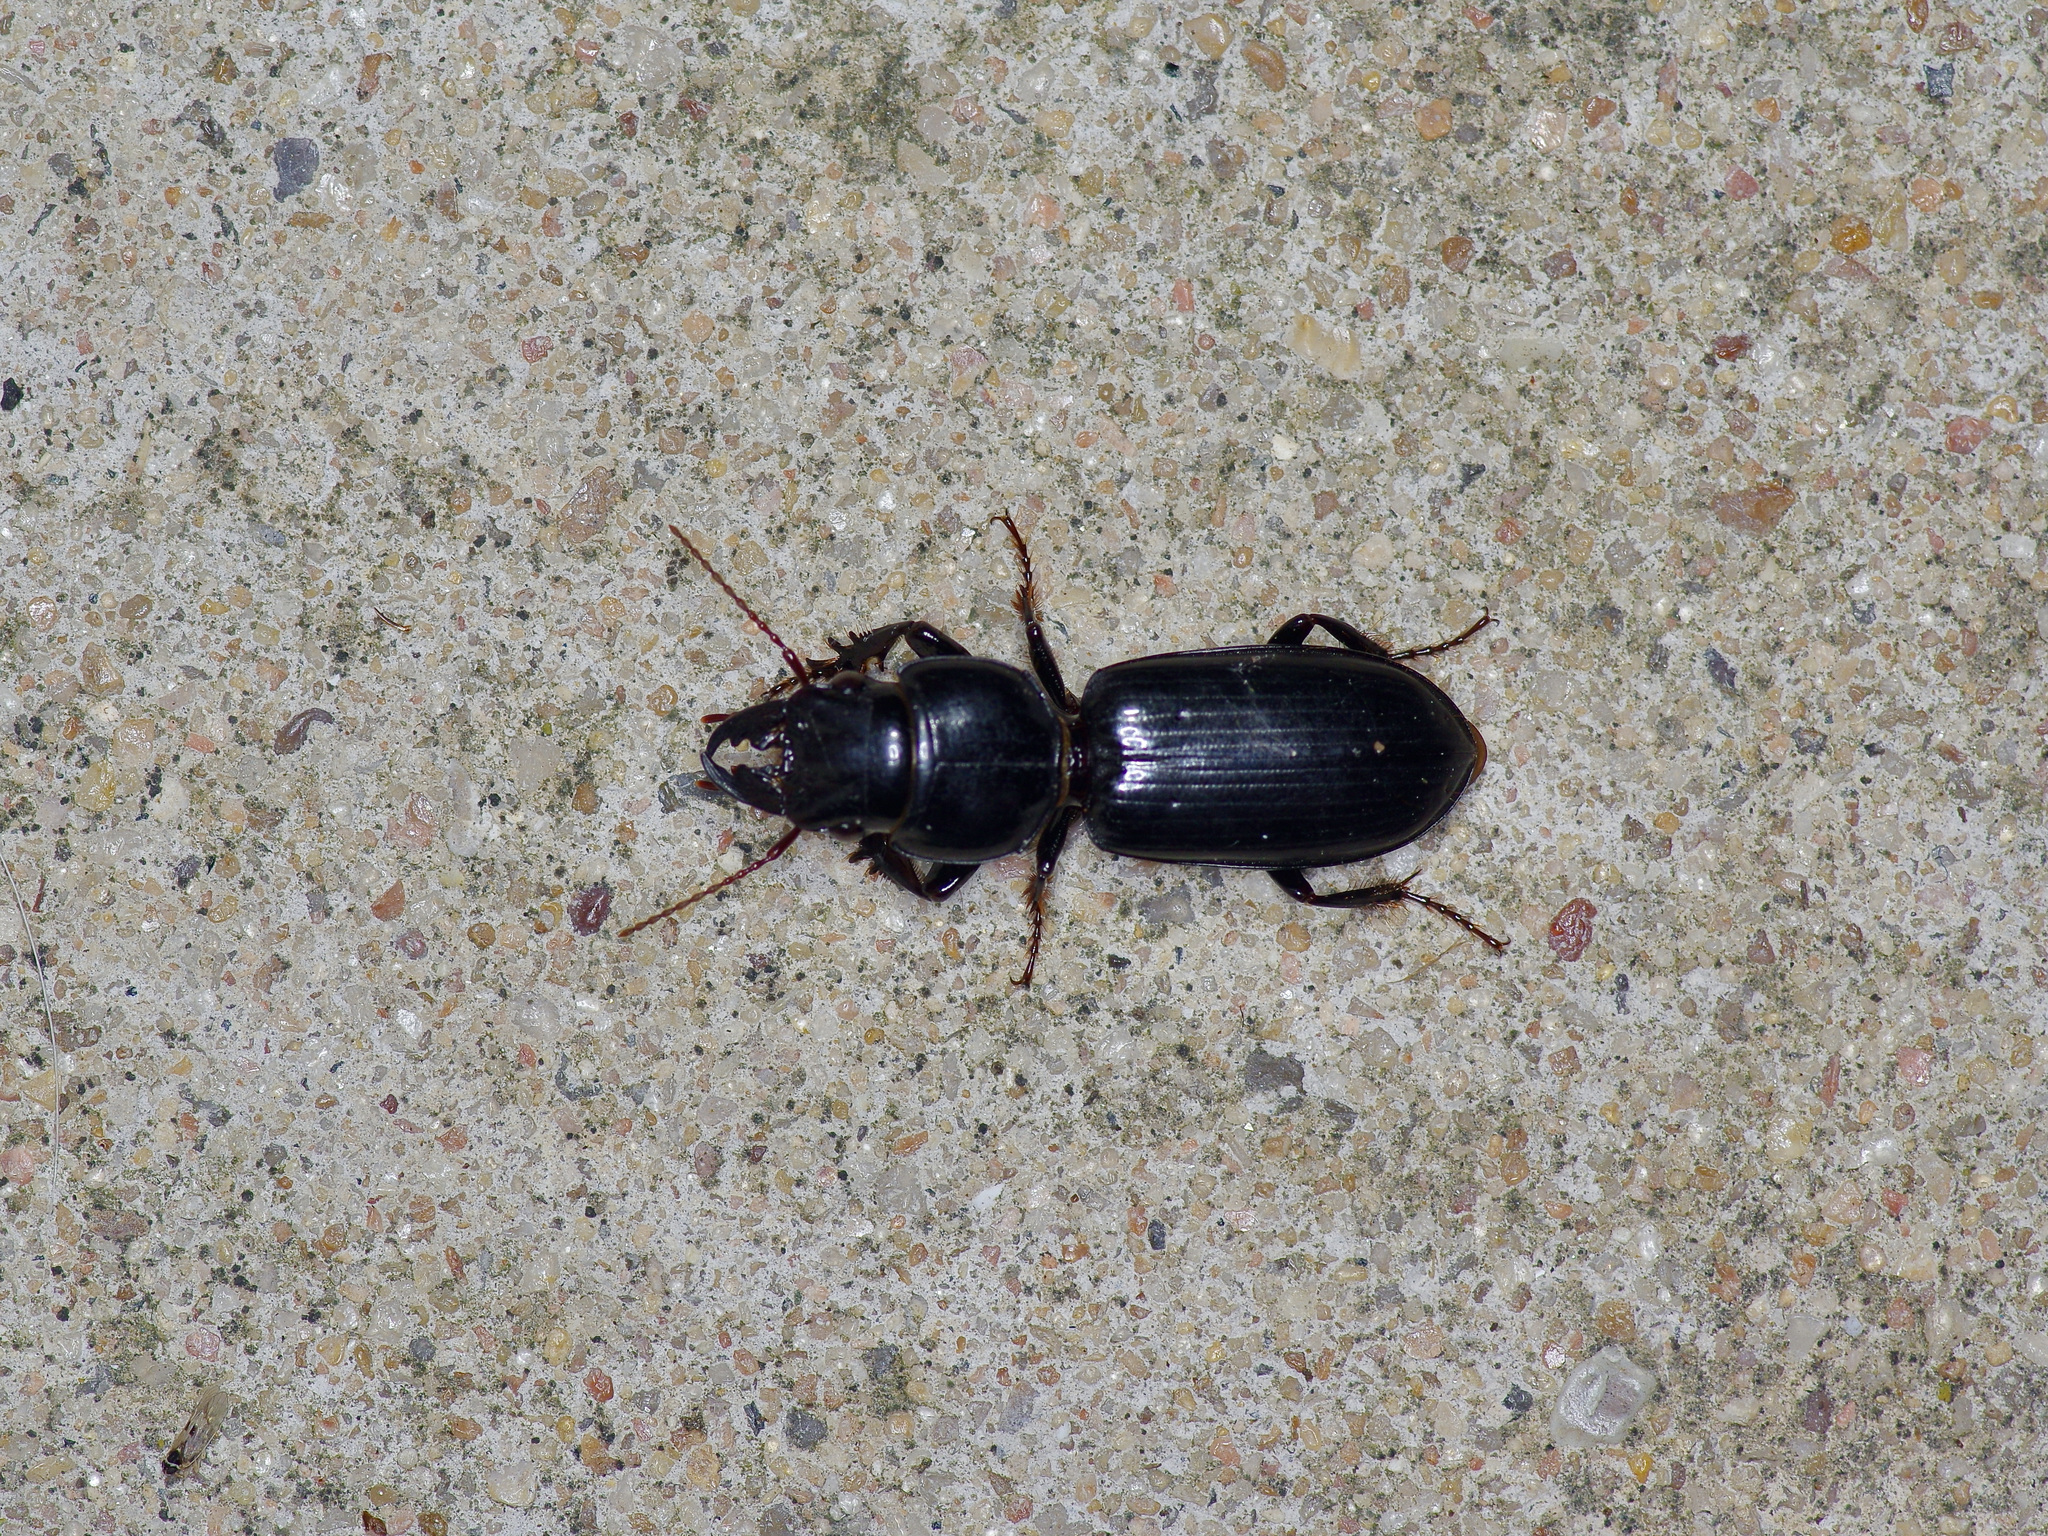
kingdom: Animalia
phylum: Arthropoda
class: Insecta
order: Coleoptera
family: Carabidae
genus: Scarites
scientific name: Scarites subterraneus
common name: Big-headed ground beetle
